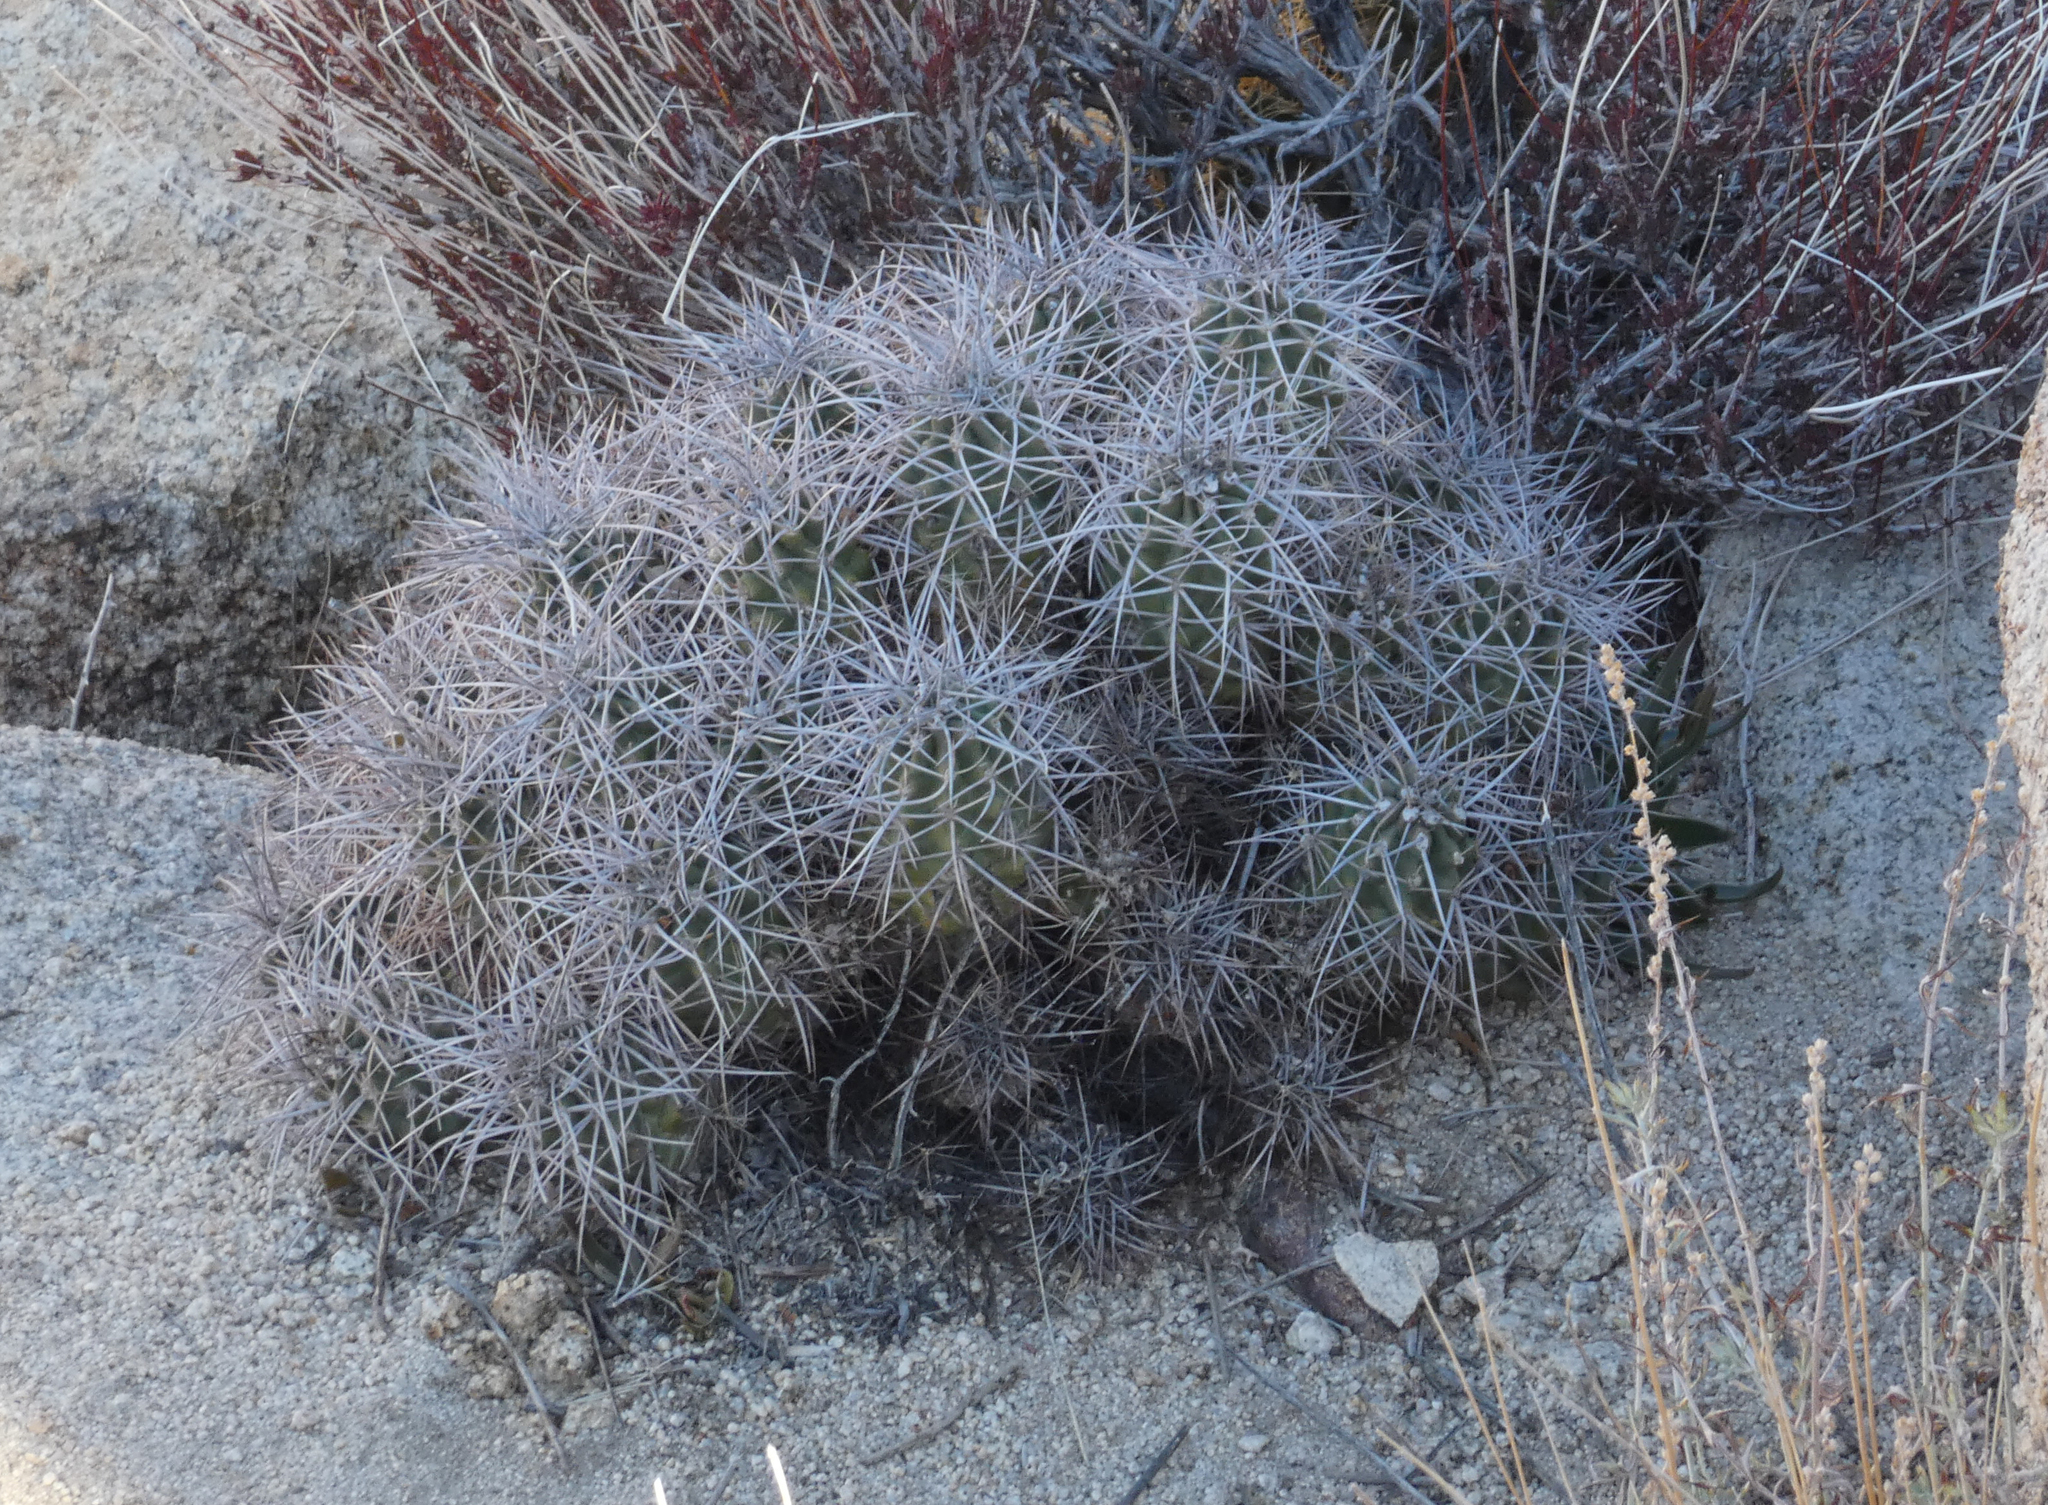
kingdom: Plantae
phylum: Tracheophyta
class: Magnoliopsida
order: Caryophyllales
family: Cactaceae
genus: Echinocereus
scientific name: Echinocereus triglochidiatus
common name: Claretcup hedgehog
